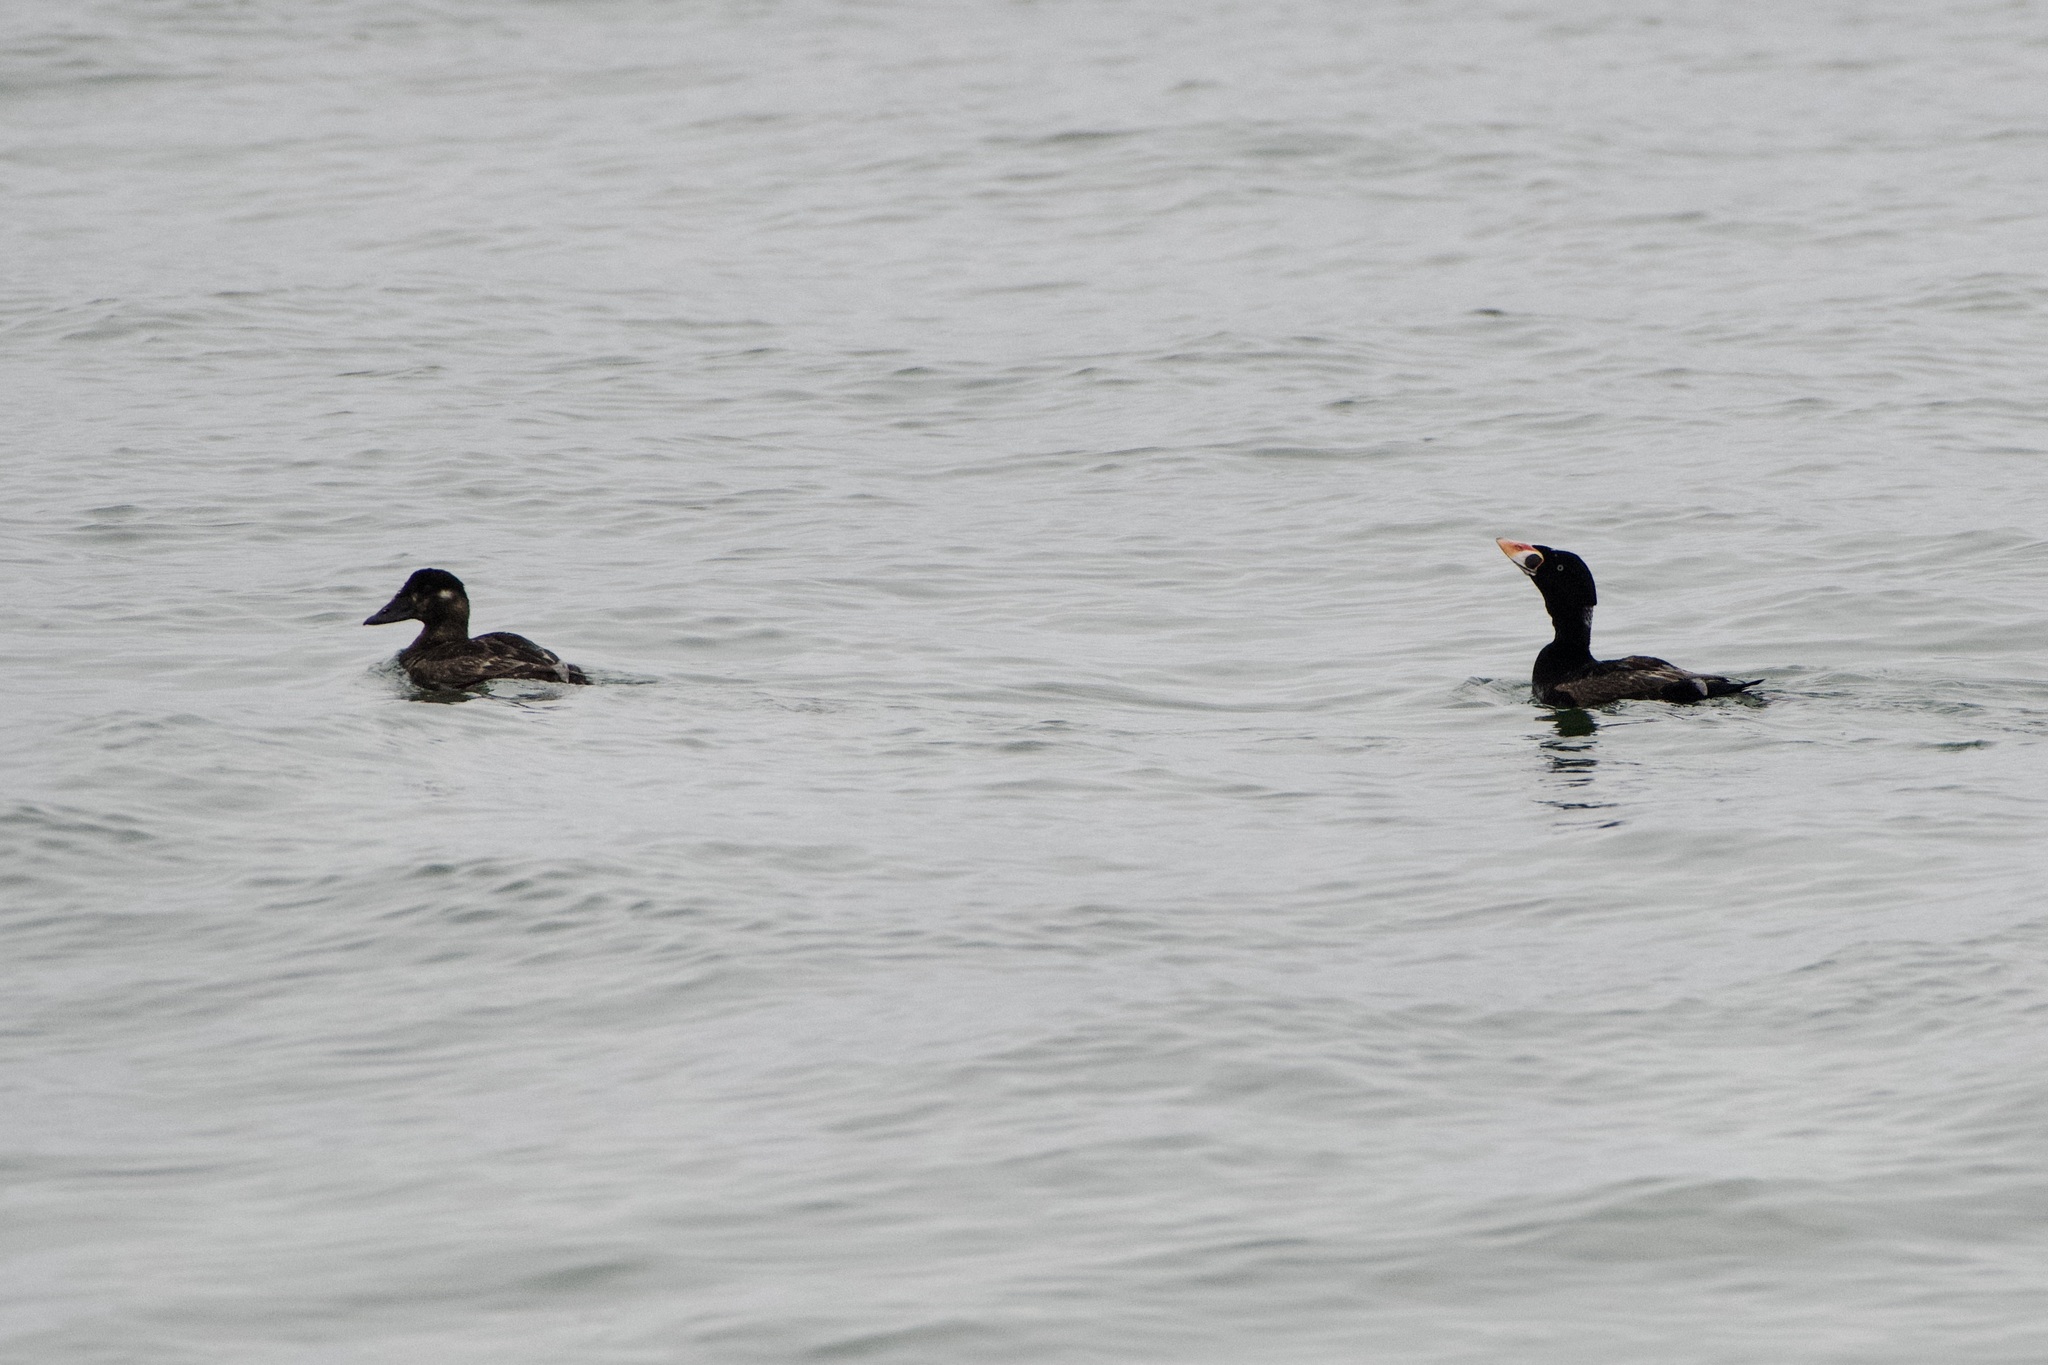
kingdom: Animalia
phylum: Chordata
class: Aves
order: Anseriformes
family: Anatidae
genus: Melanitta
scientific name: Melanitta perspicillata
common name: Surf scoter
